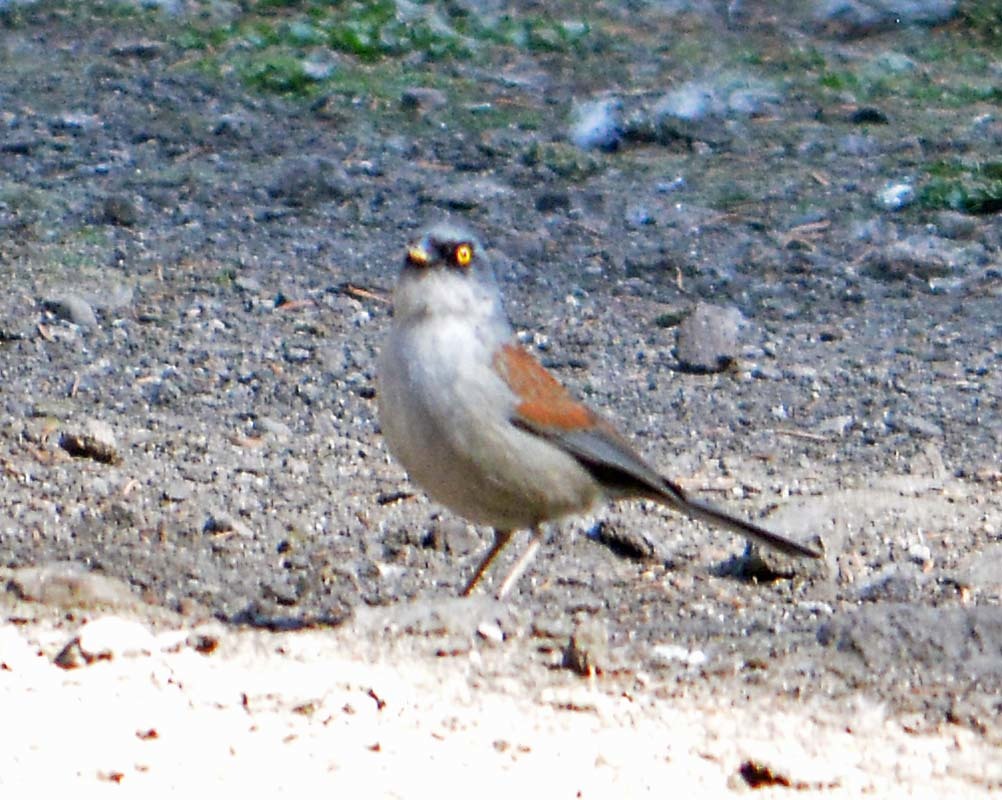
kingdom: Animalia
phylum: Chordata
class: Aves
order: Passeriformes
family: Passerellidae
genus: Junco
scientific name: Junco phaeonotus
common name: Yellow-eyed junco
